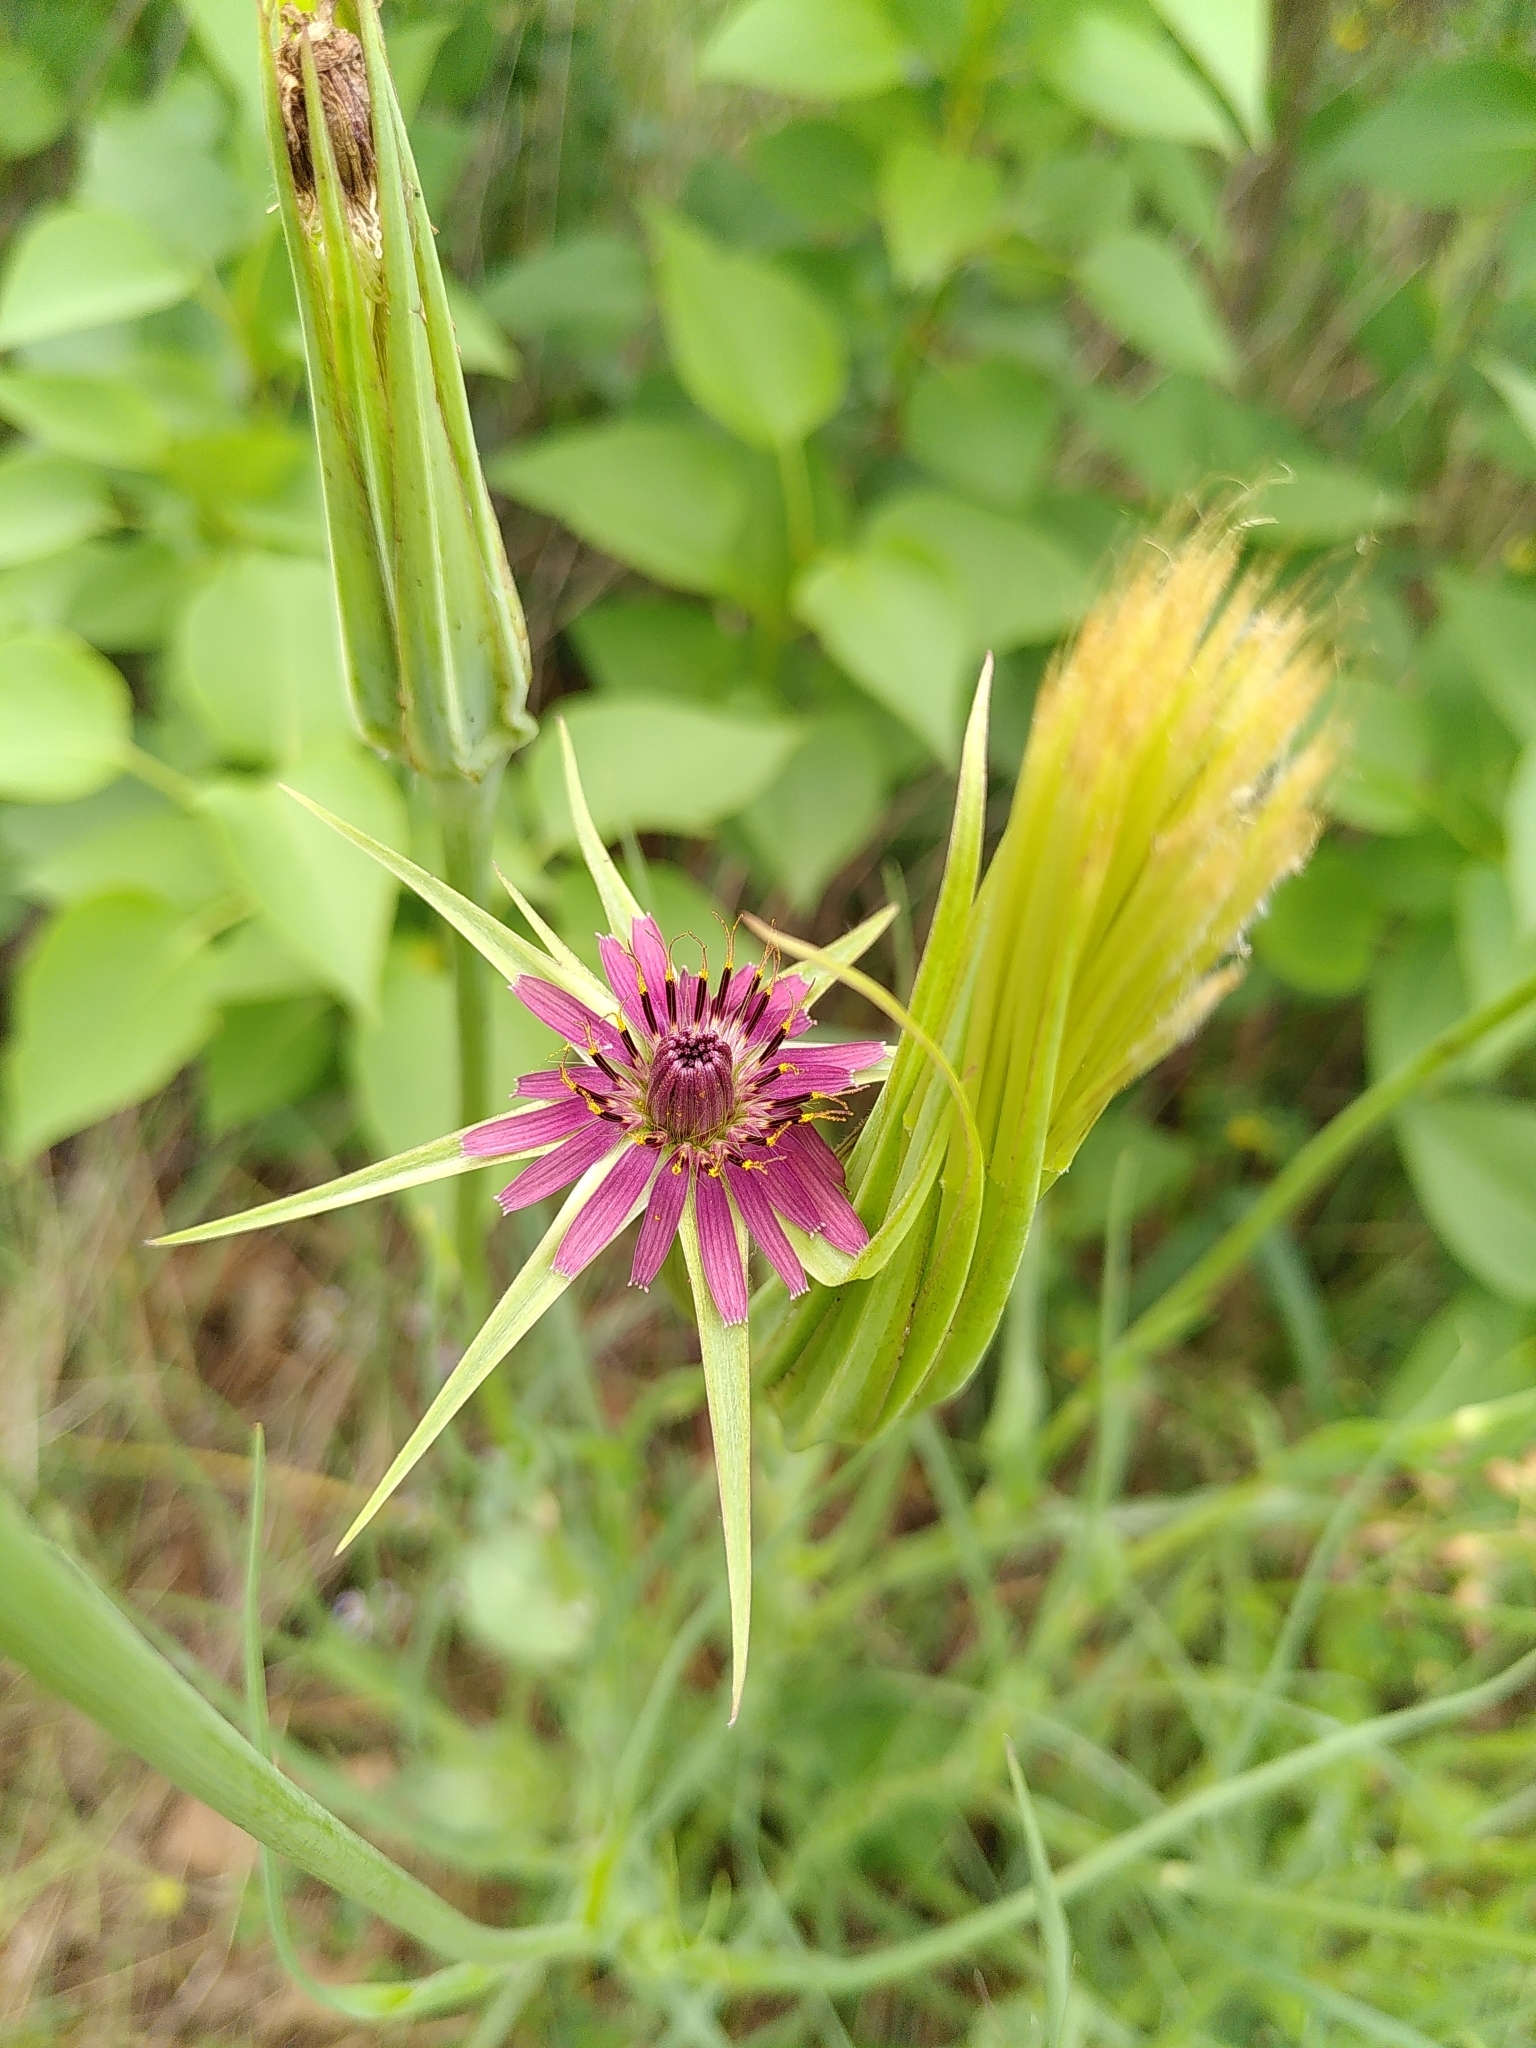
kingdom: Plantae
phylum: Tracheophyta
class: Magnoliopsida
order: Asterales
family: Asteraceae
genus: Tragopogon
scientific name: Tragopogon porrifolius
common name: Salsify
